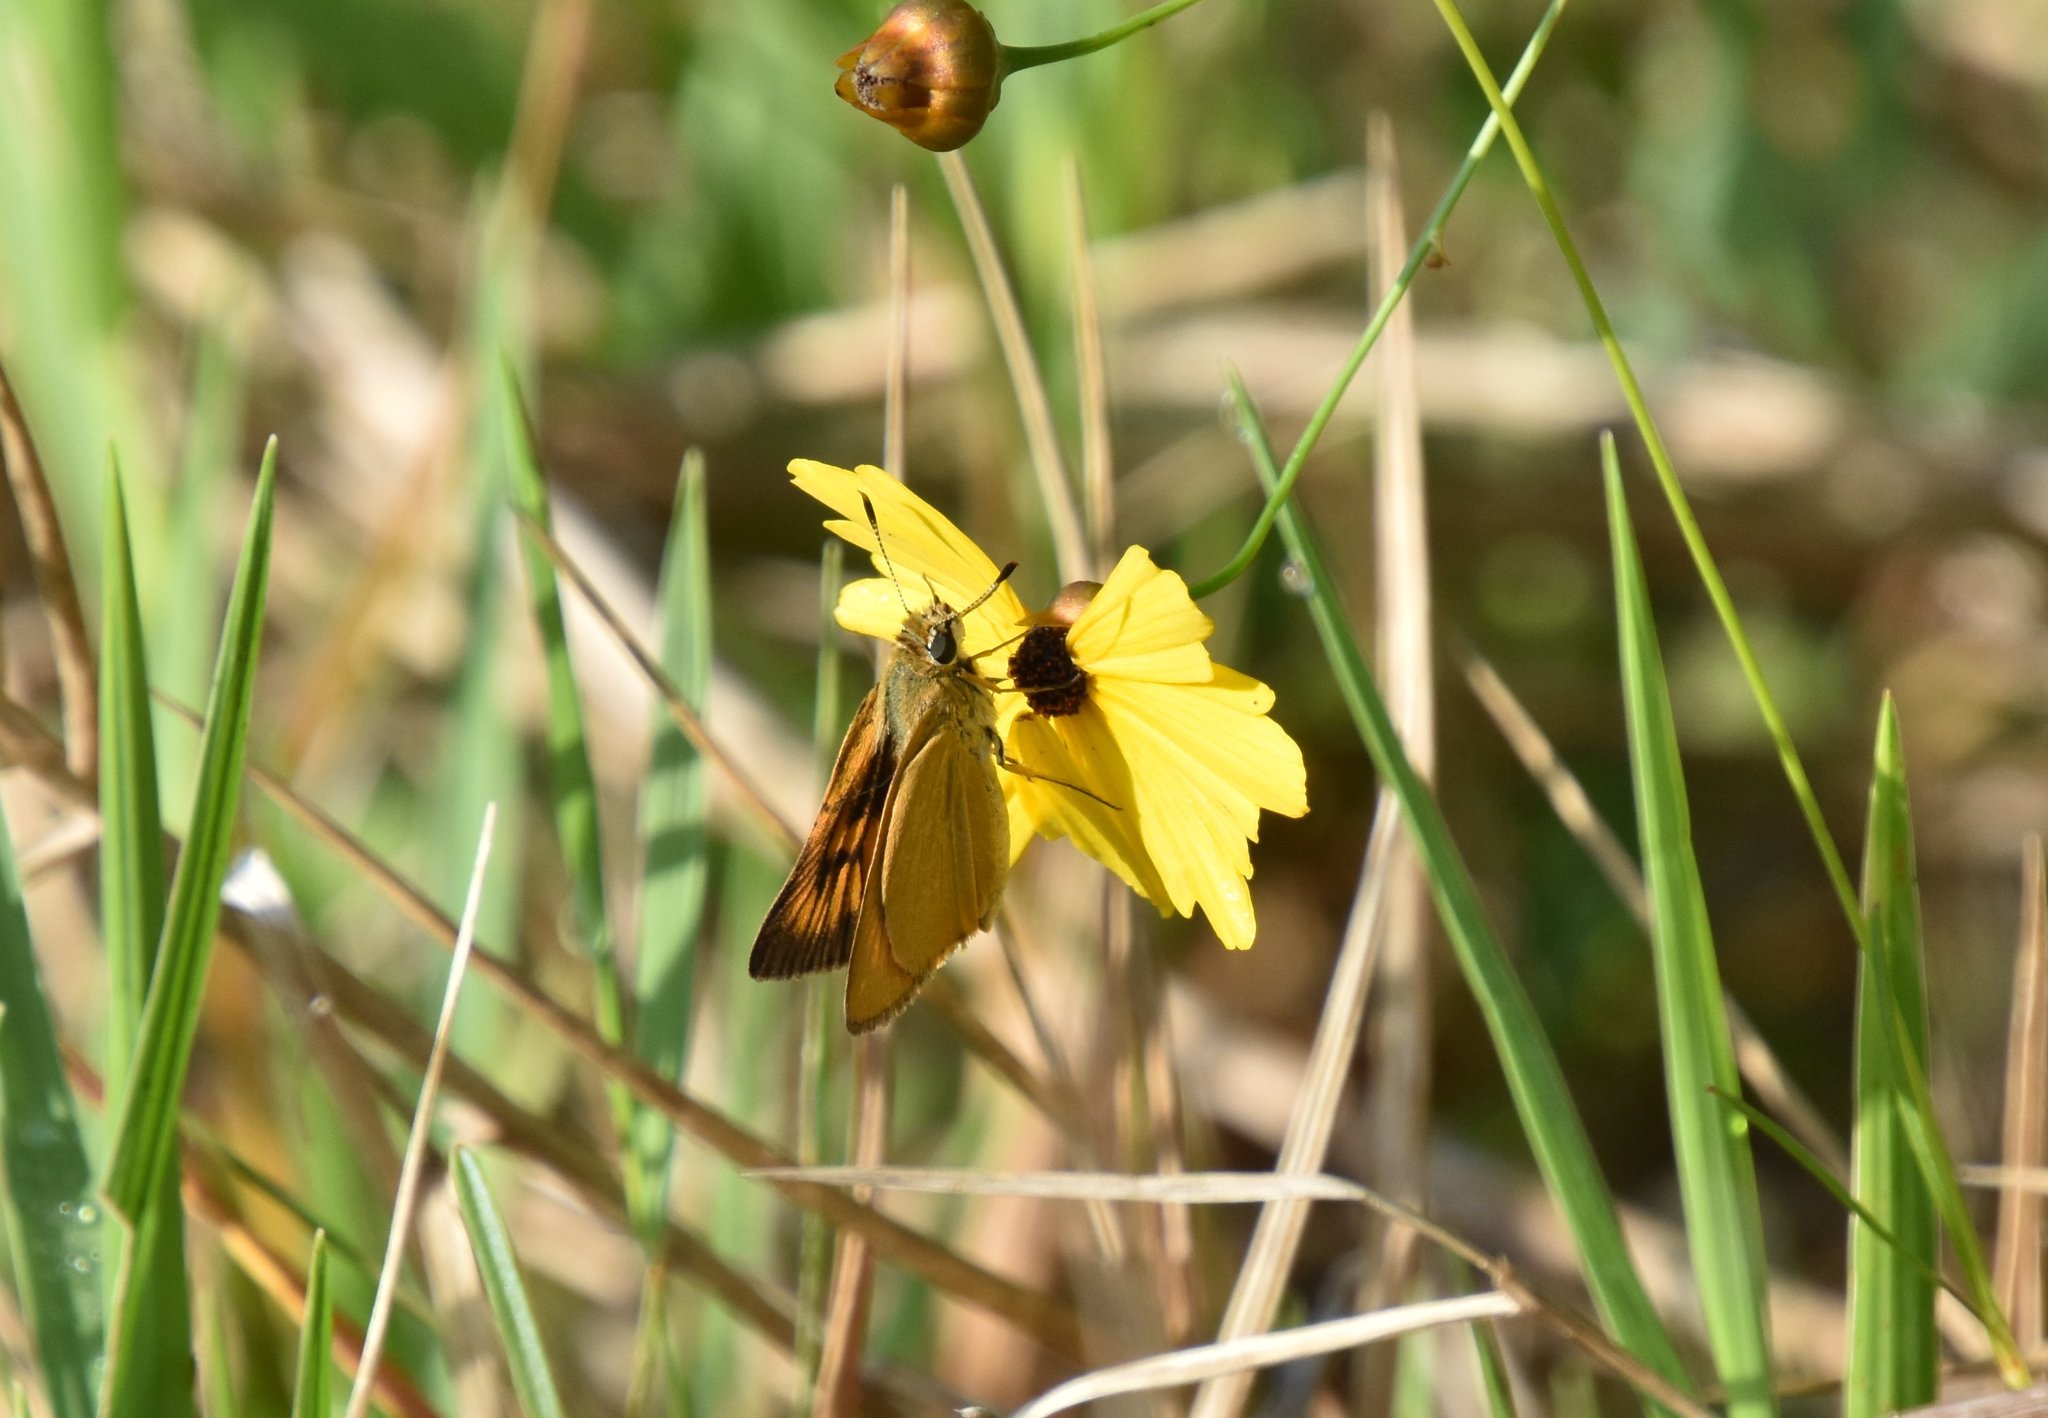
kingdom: Animalia
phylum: Arthropoda
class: Insecta
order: Lepidoptera
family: Hesperiidae
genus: Atrytone
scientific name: Atrytone delaware
